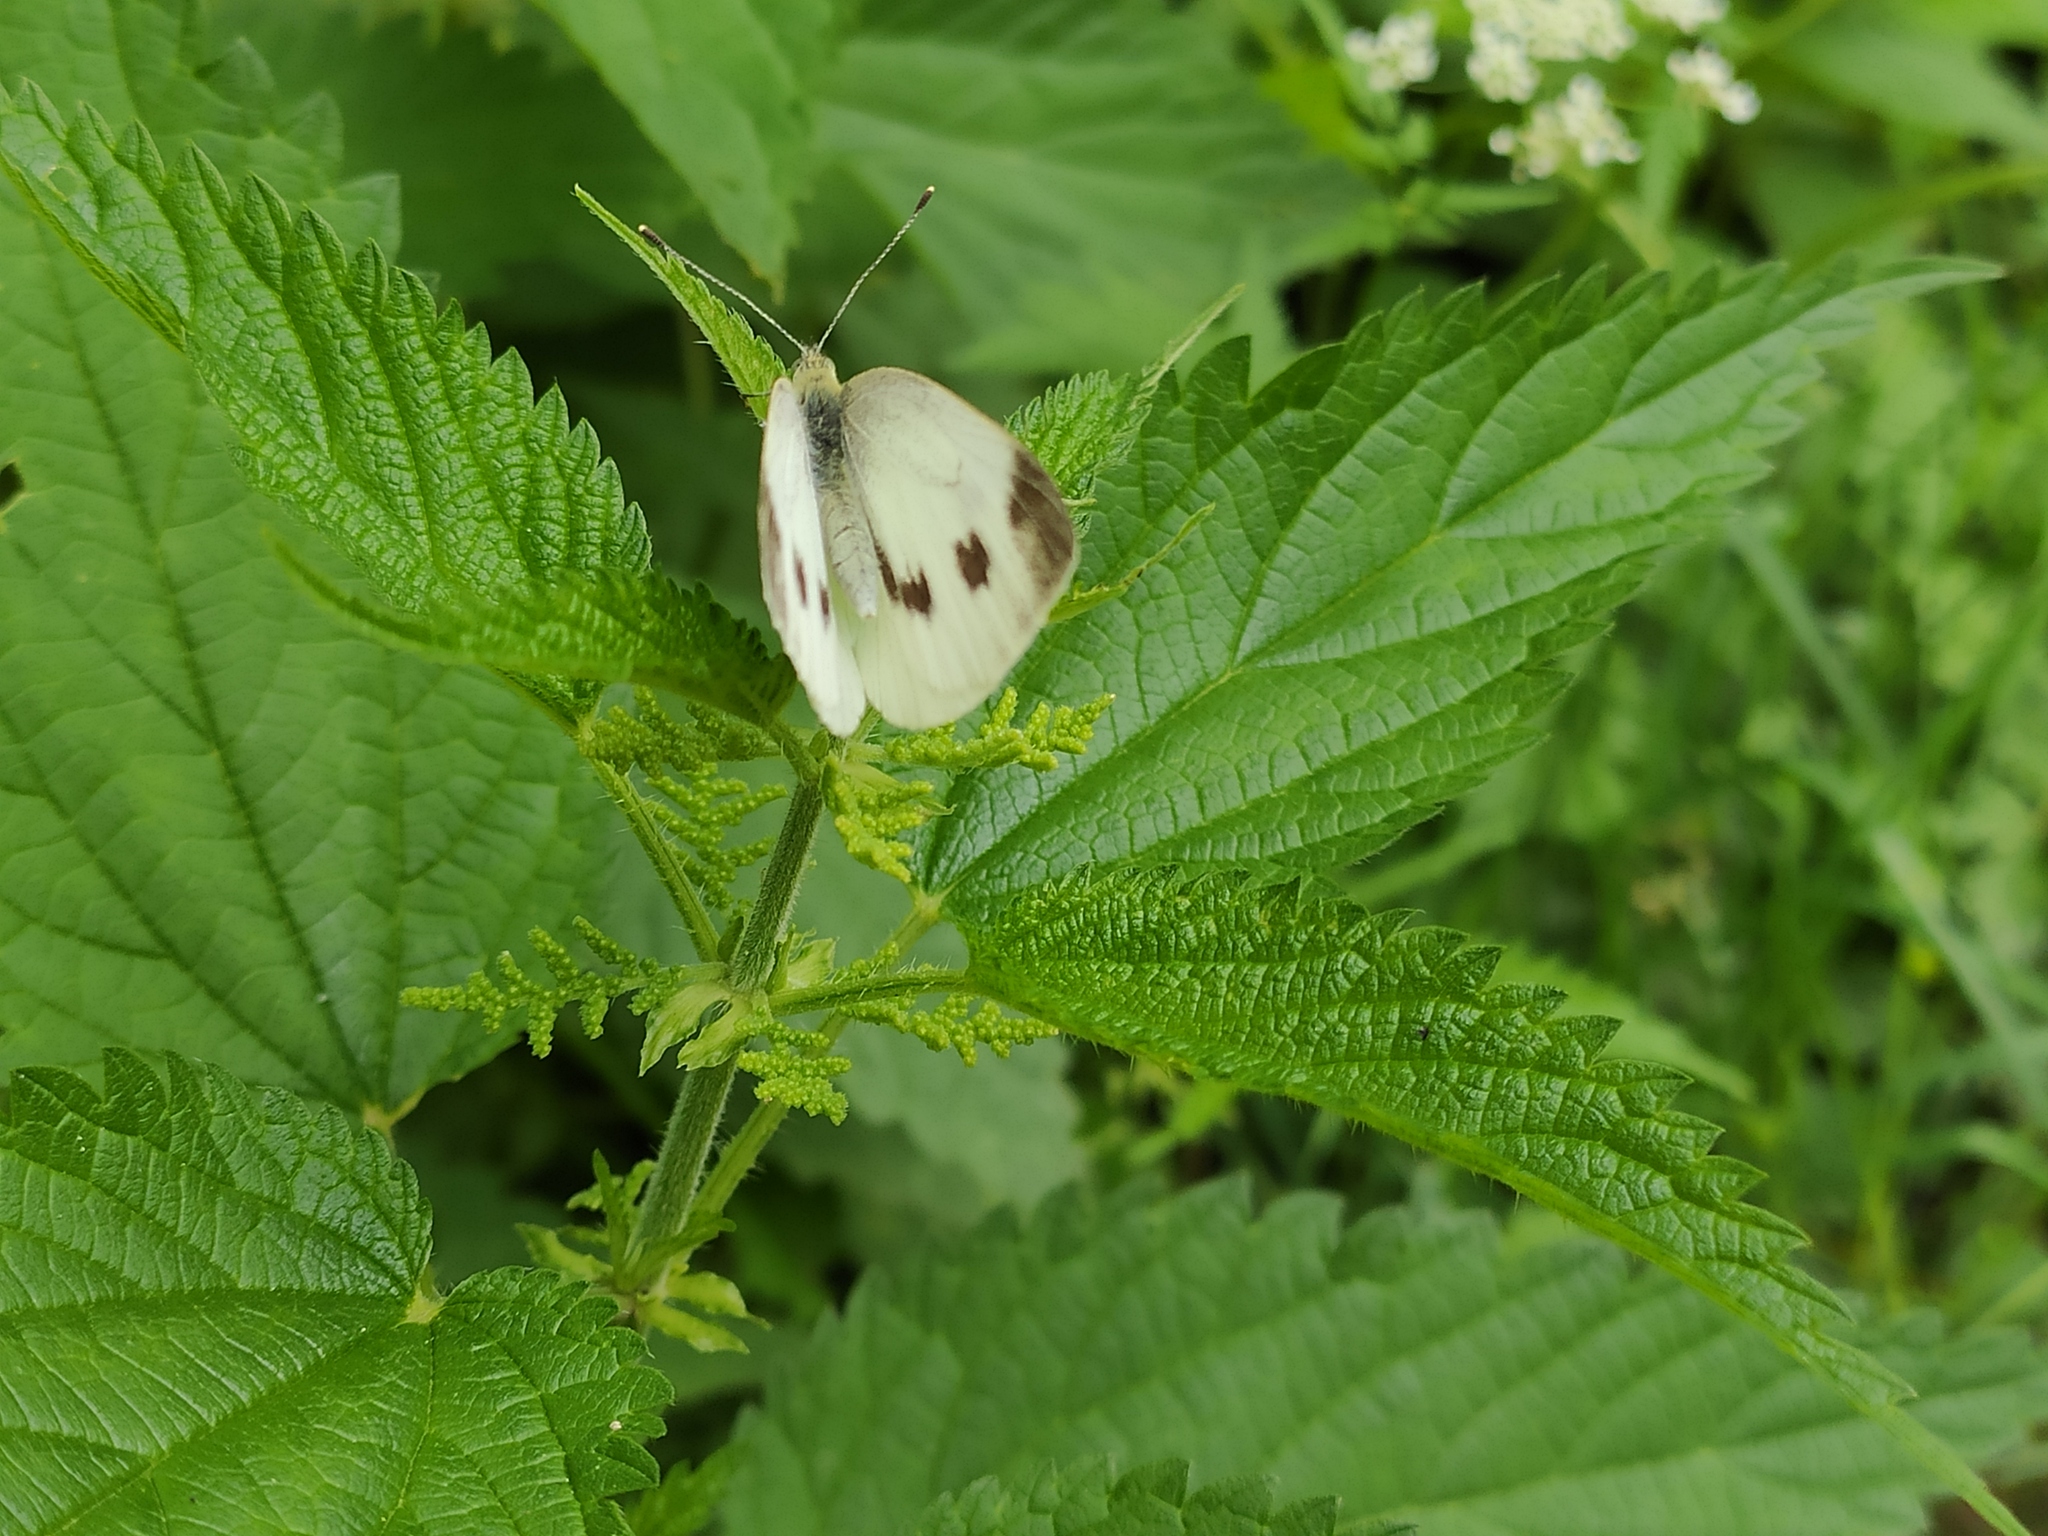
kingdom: Animalia
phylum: Arthropoda
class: Insecta
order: Lepidoptera
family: Pieridae
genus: Pieris
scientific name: Pieris napi
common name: Green-veined white
